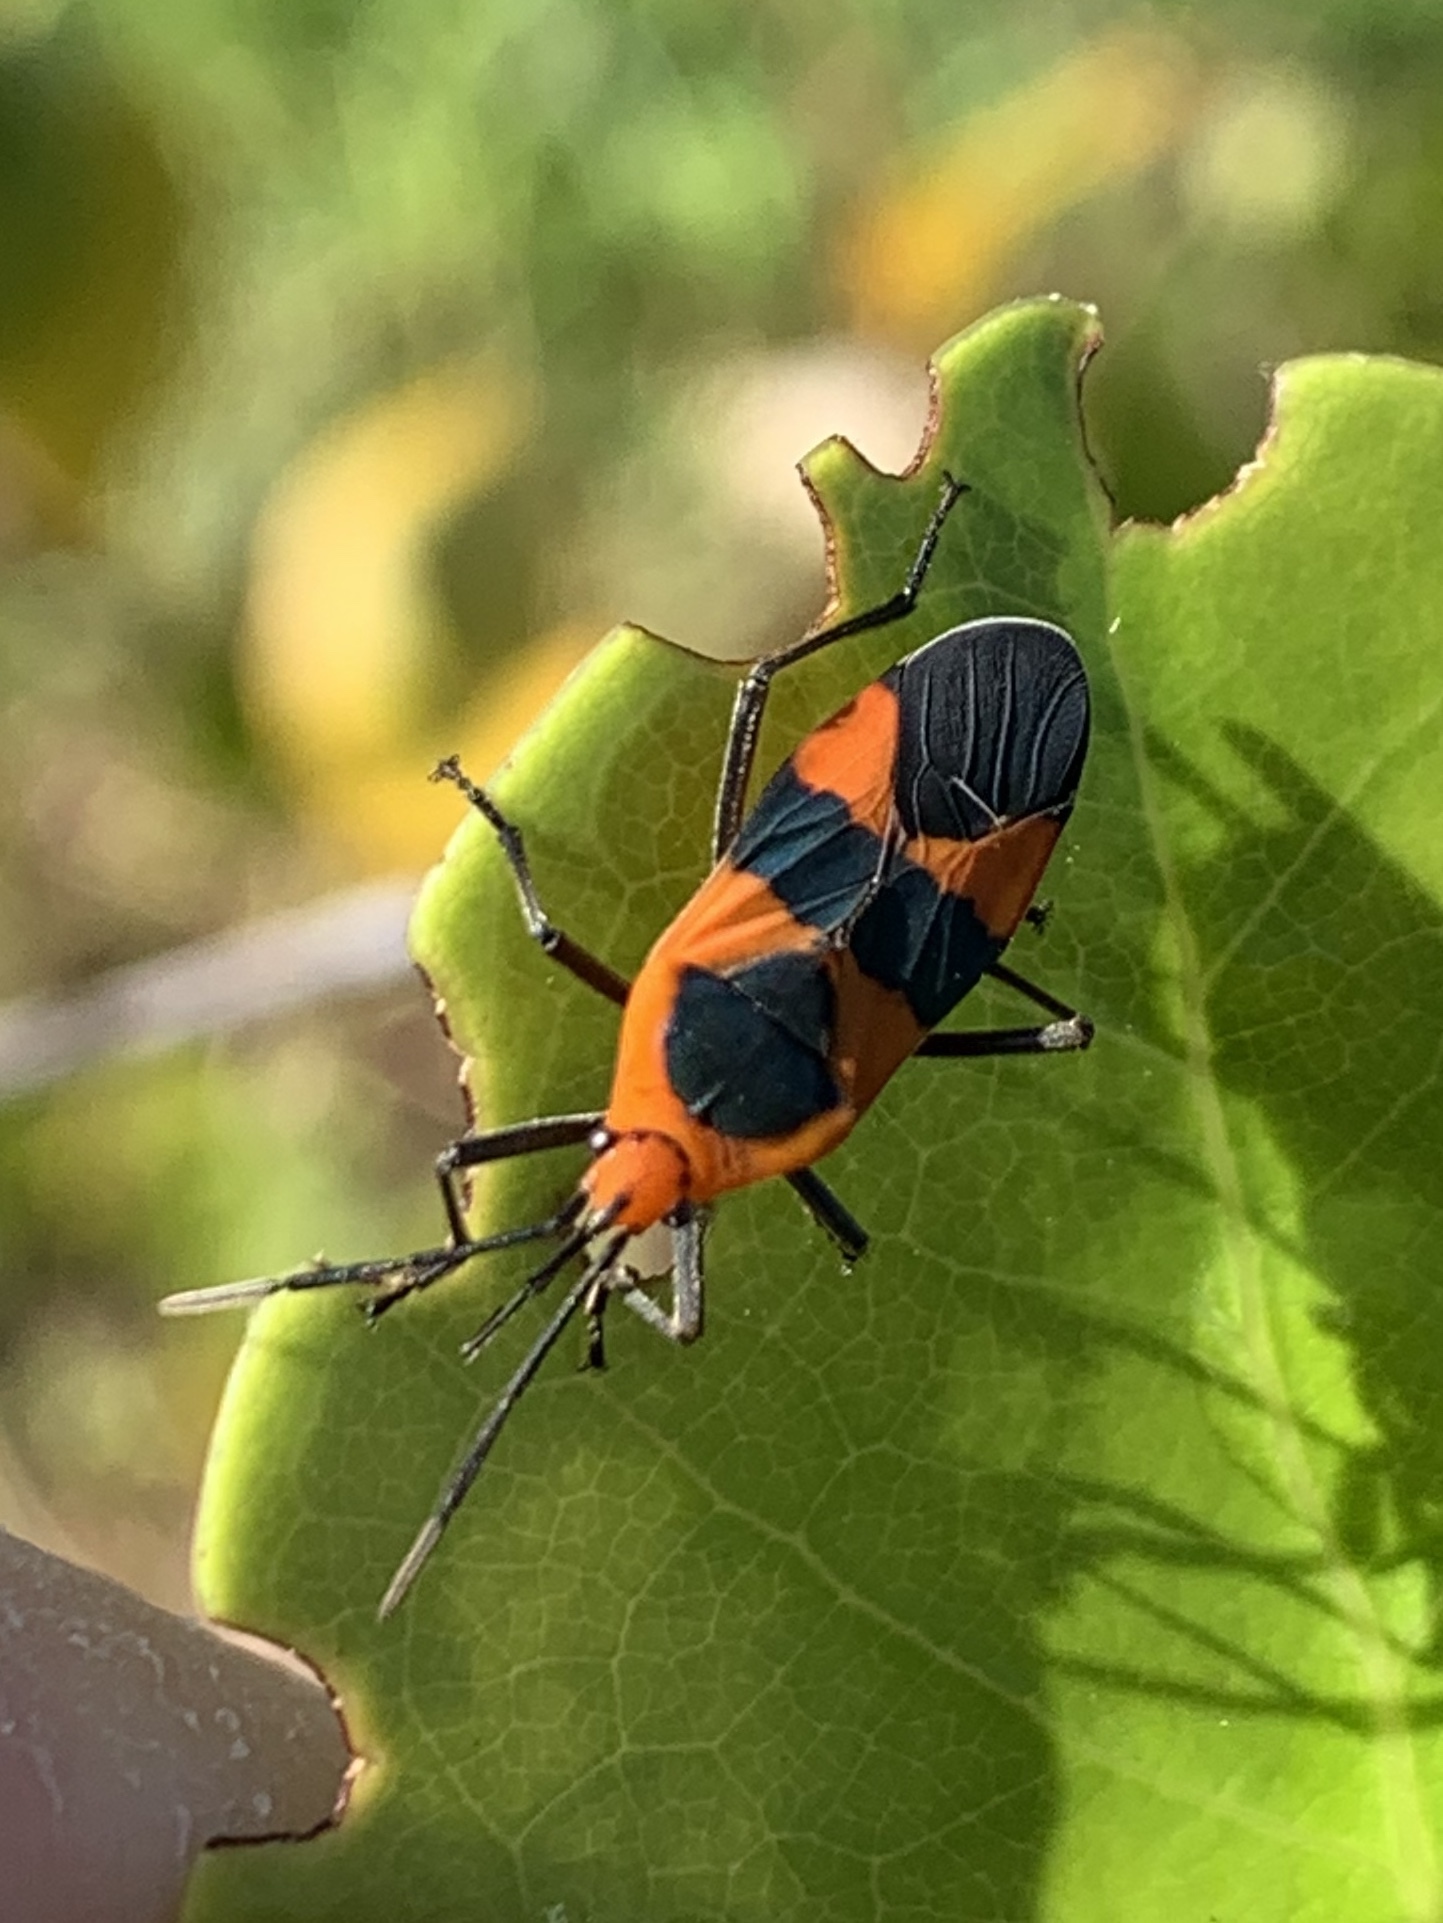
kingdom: Animalia
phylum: Arthropoda
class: Insecta
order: Hemiptera
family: Lygaeidae
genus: Oncopeltus
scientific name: Oncopeltus aulicus
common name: Lygaeid bug
